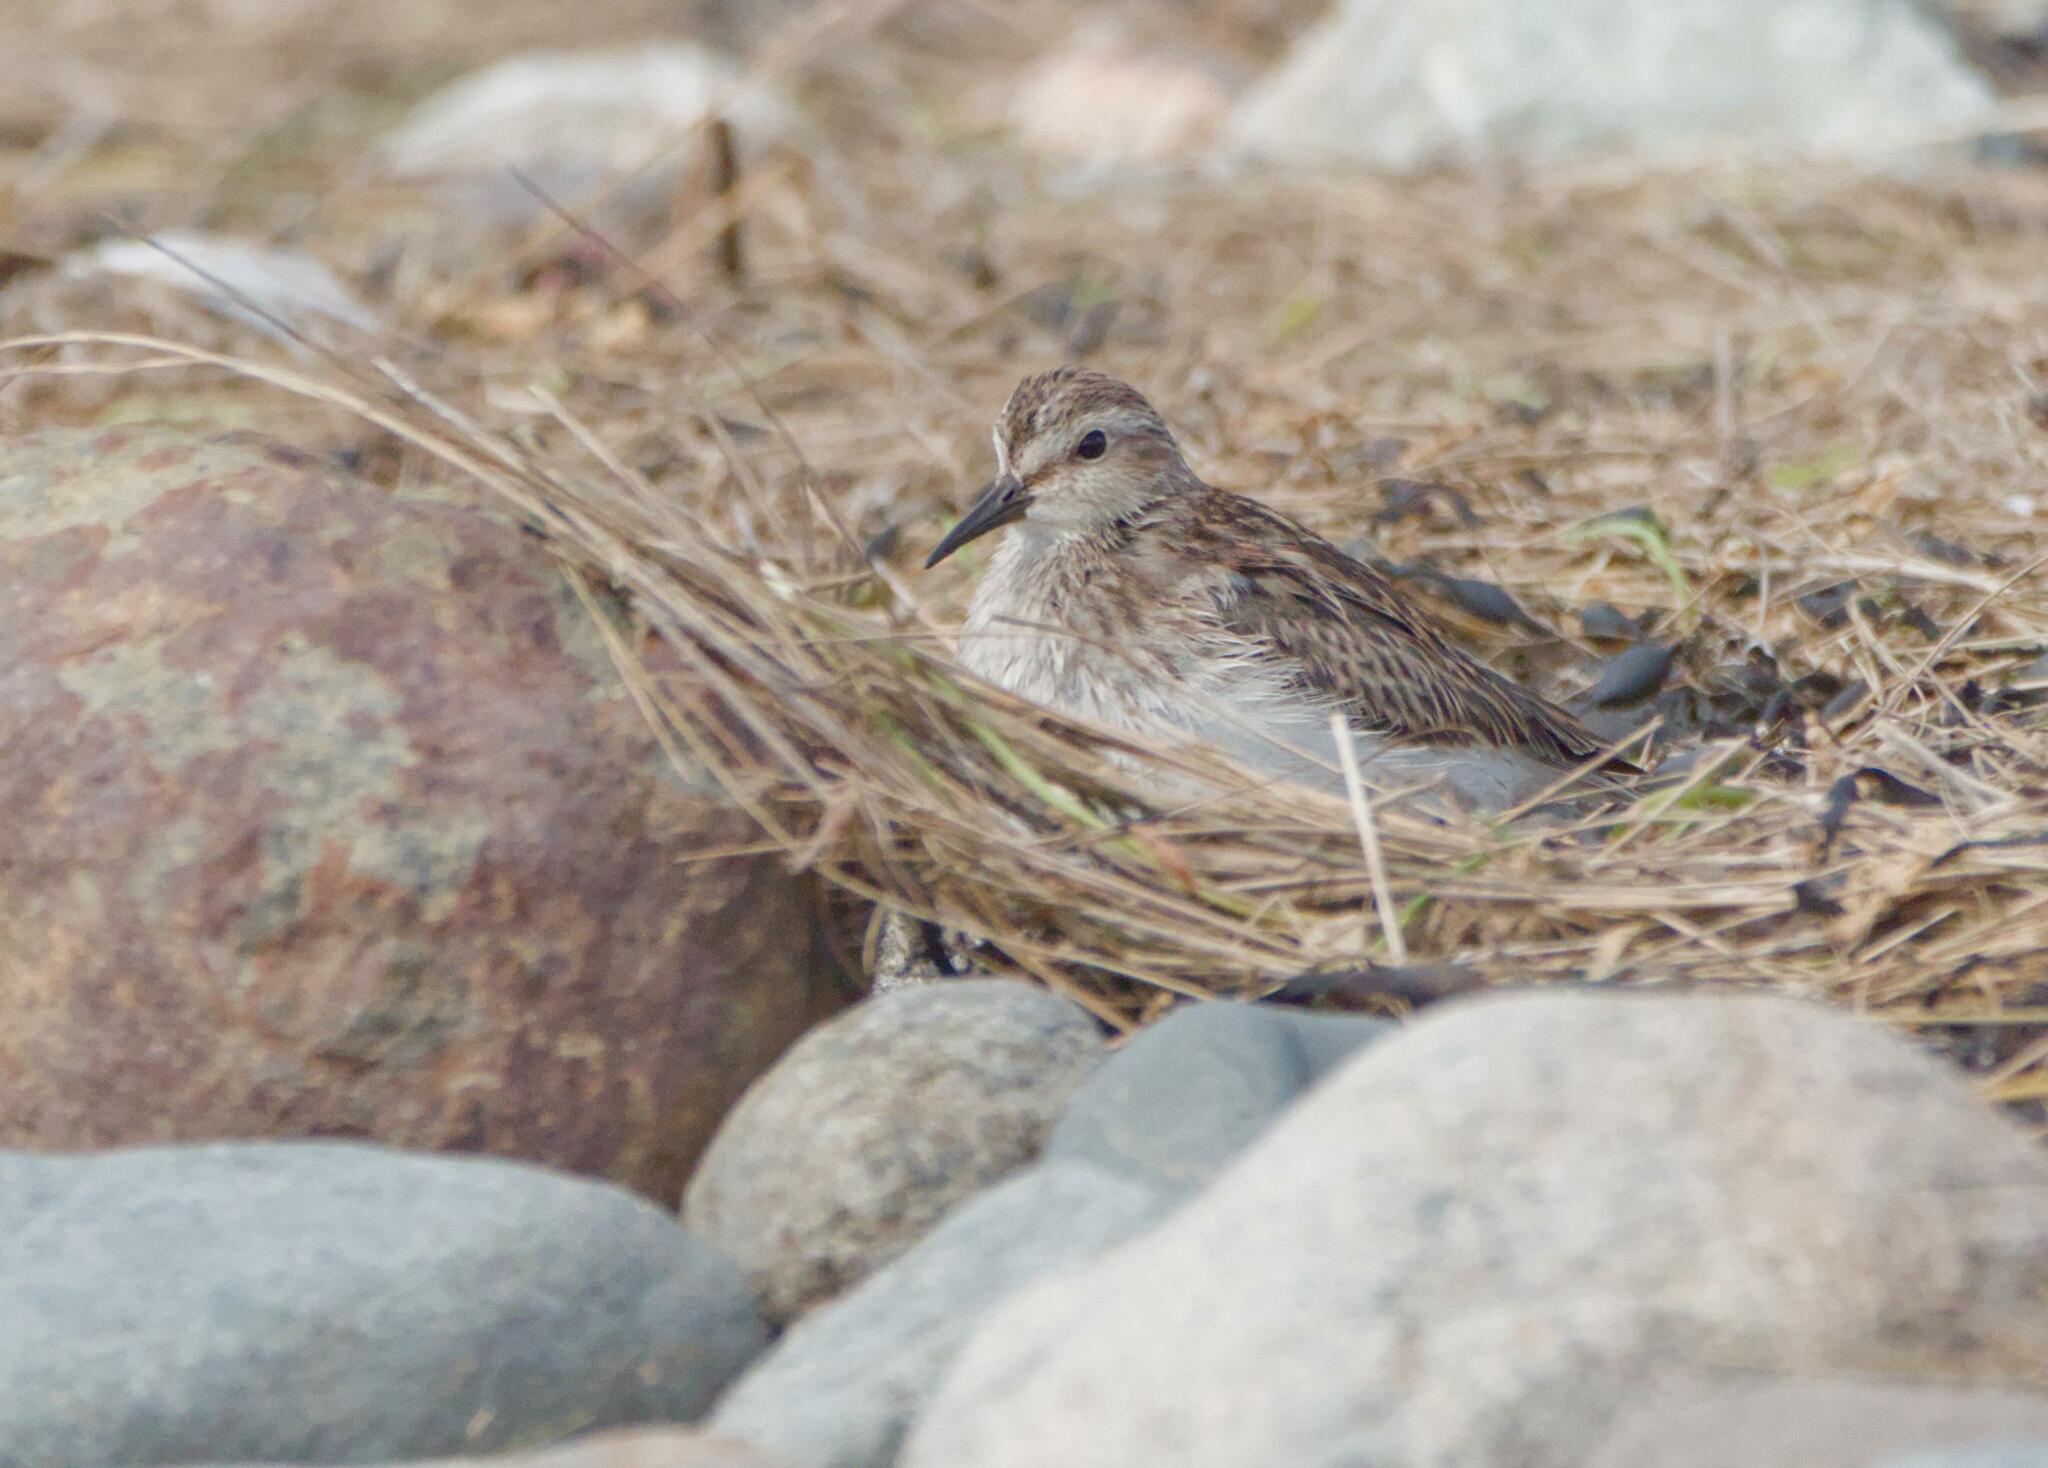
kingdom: Animalia
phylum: Chordata
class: Aves
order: Charadriiformes
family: Scolopacidae
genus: Calidris
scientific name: Calidris minutilla
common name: Least sandpiper
